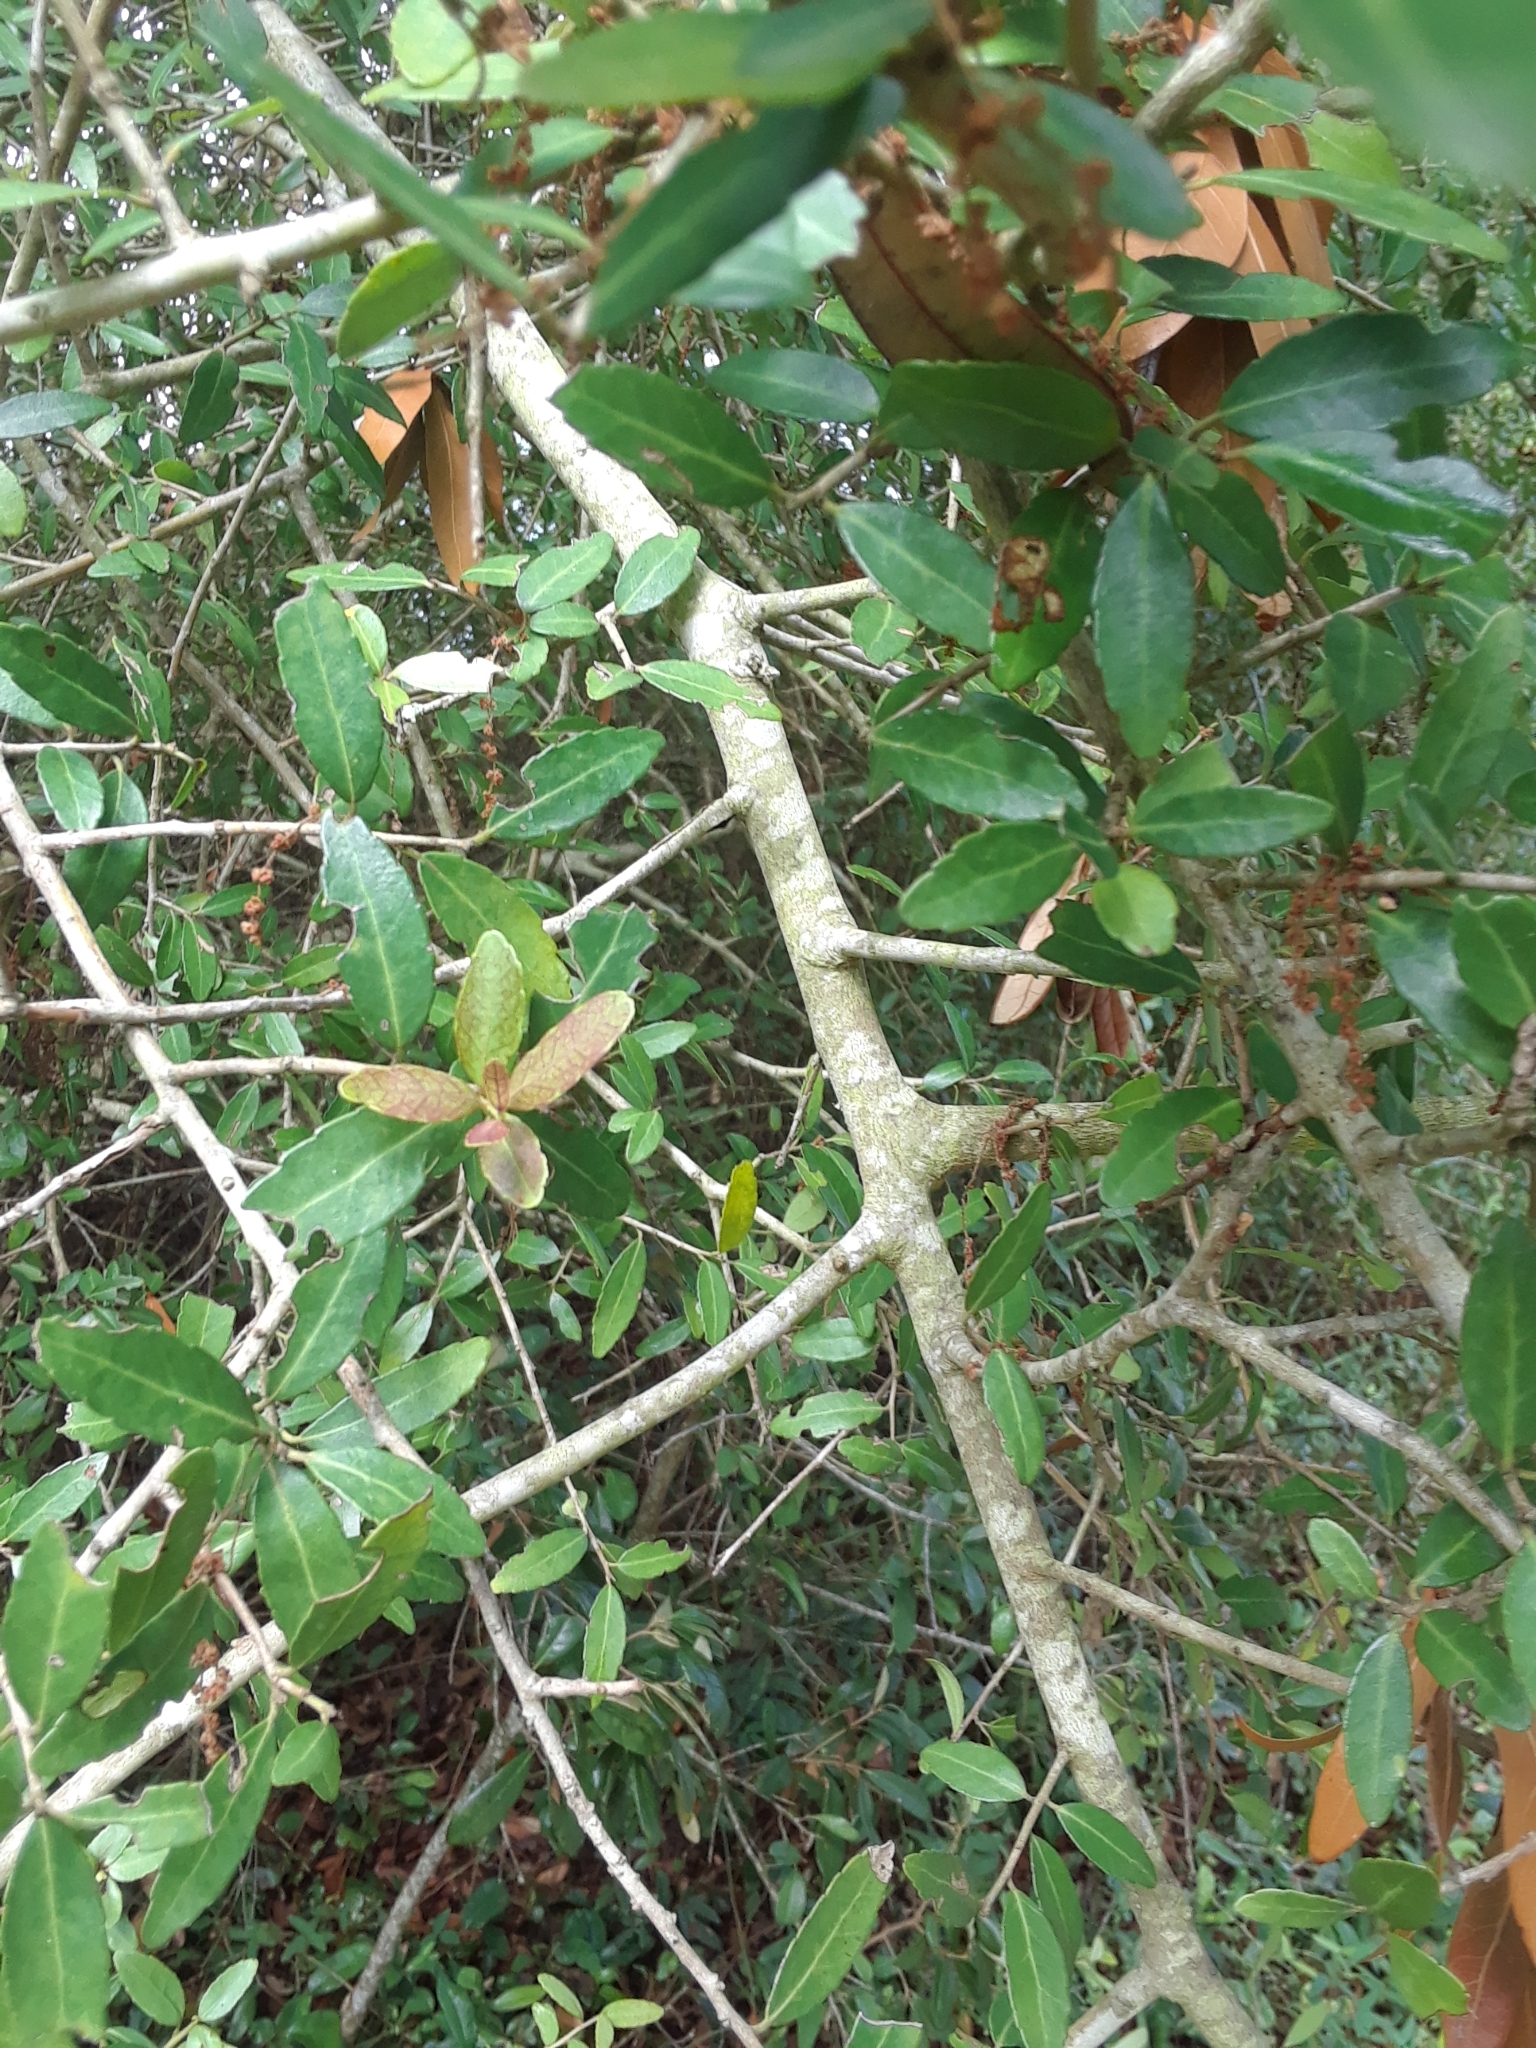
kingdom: Plantae
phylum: Tracheophyta
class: Magnoliopsida
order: Aquifoliales
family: Aquifoliaceae
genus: Ilex
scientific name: Ilex vomitoria
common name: Yaupon holly
